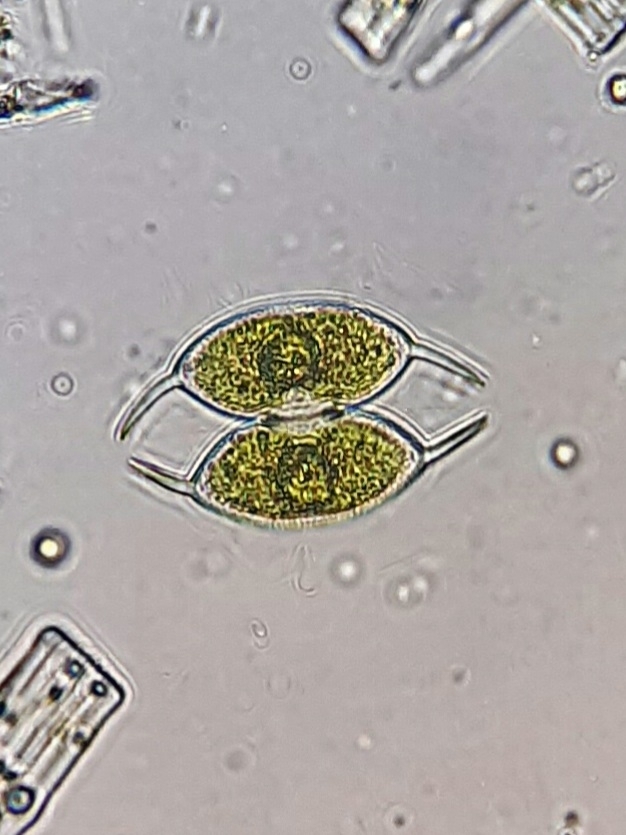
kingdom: Plantae
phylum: Charophyta
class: Zygnematophyceae
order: Zygnematales
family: Desmidiaceae
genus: Staurodesmus
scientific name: Staurodesmus convergens
